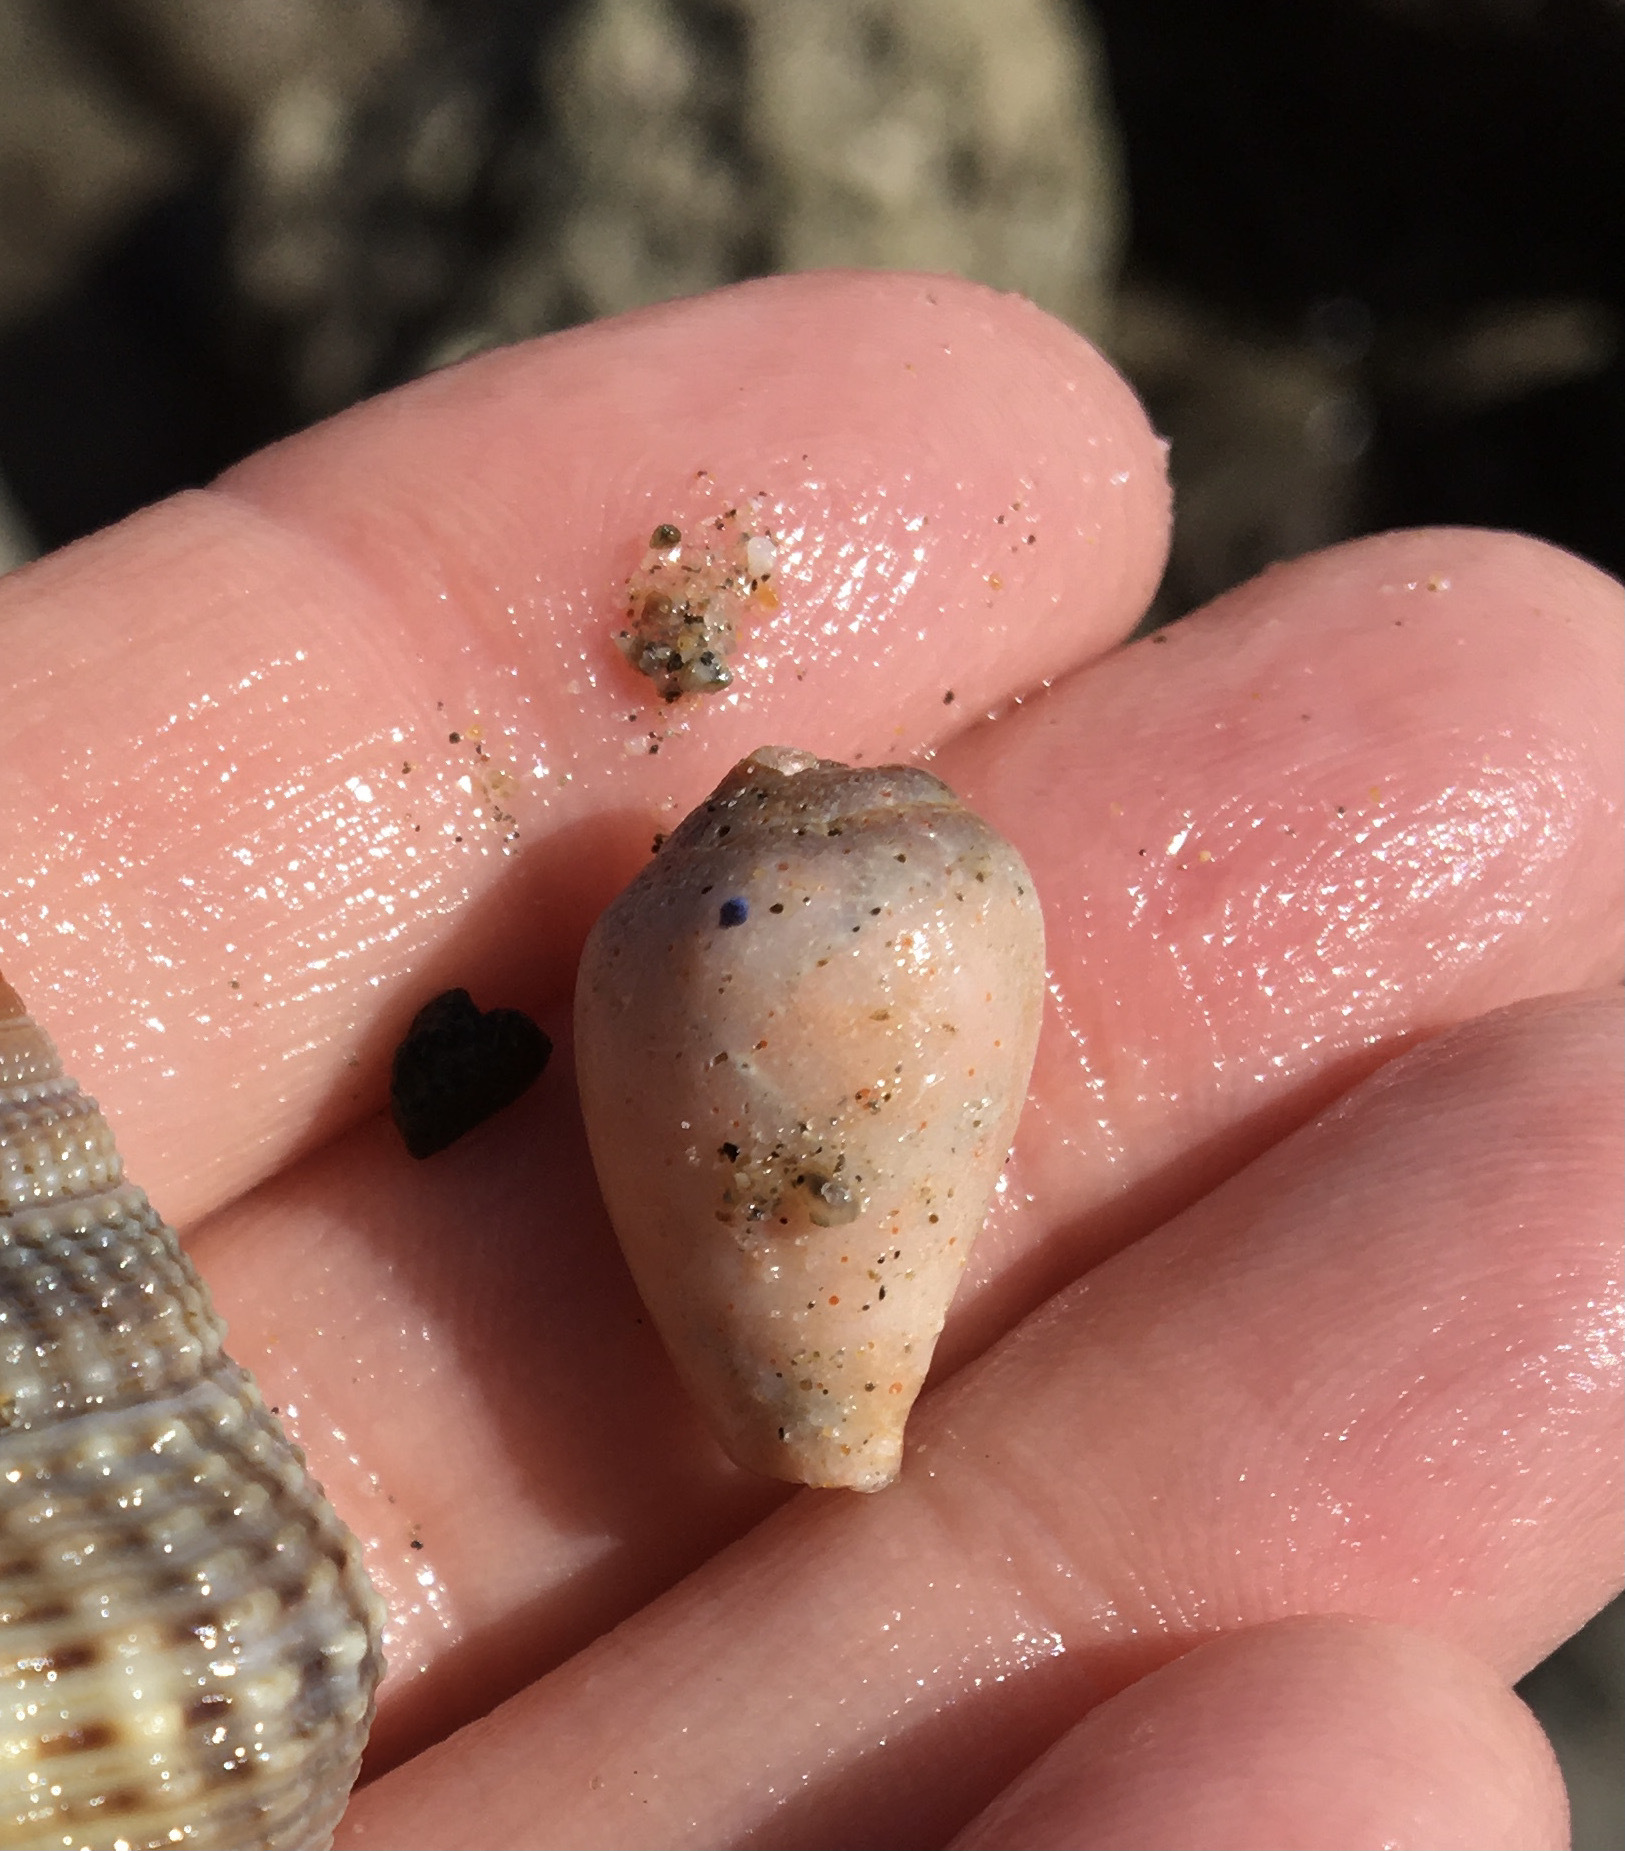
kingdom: Animalia
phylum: Mollusca
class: Gastropoda
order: Neogastropoda
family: Conidae
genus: Californiconus
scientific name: Californiconus californicus
